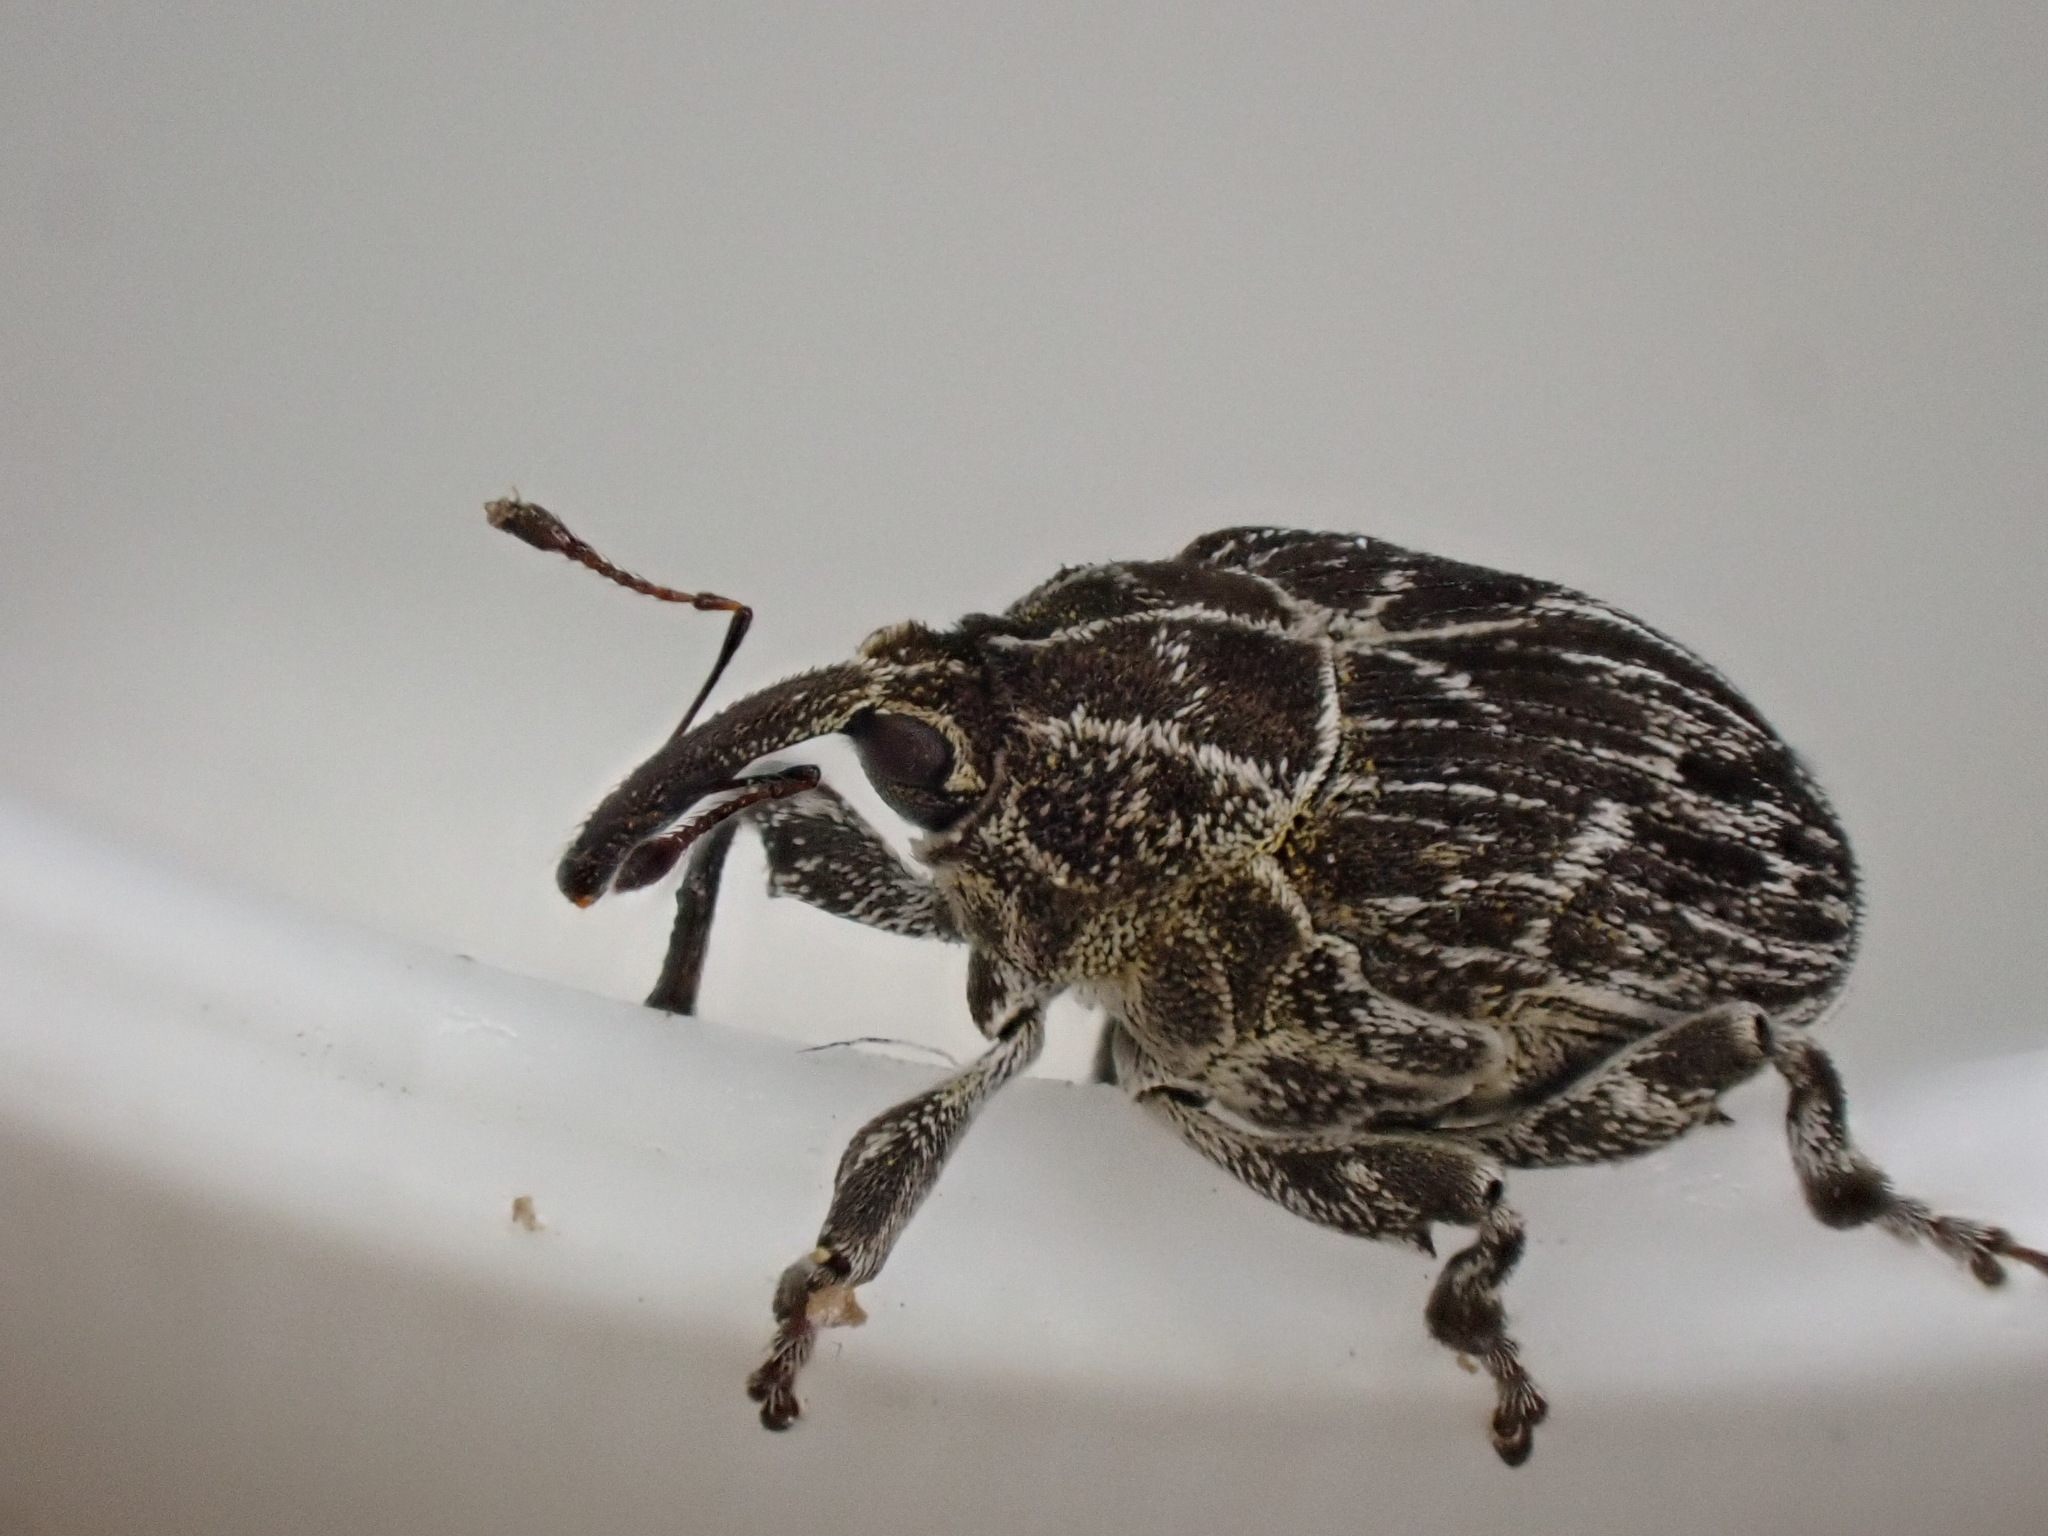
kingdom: Animalia
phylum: Arthropoda
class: Insecta
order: Coleoptera
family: Curculionidae
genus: Mogulones
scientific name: Mogulones geographicus
